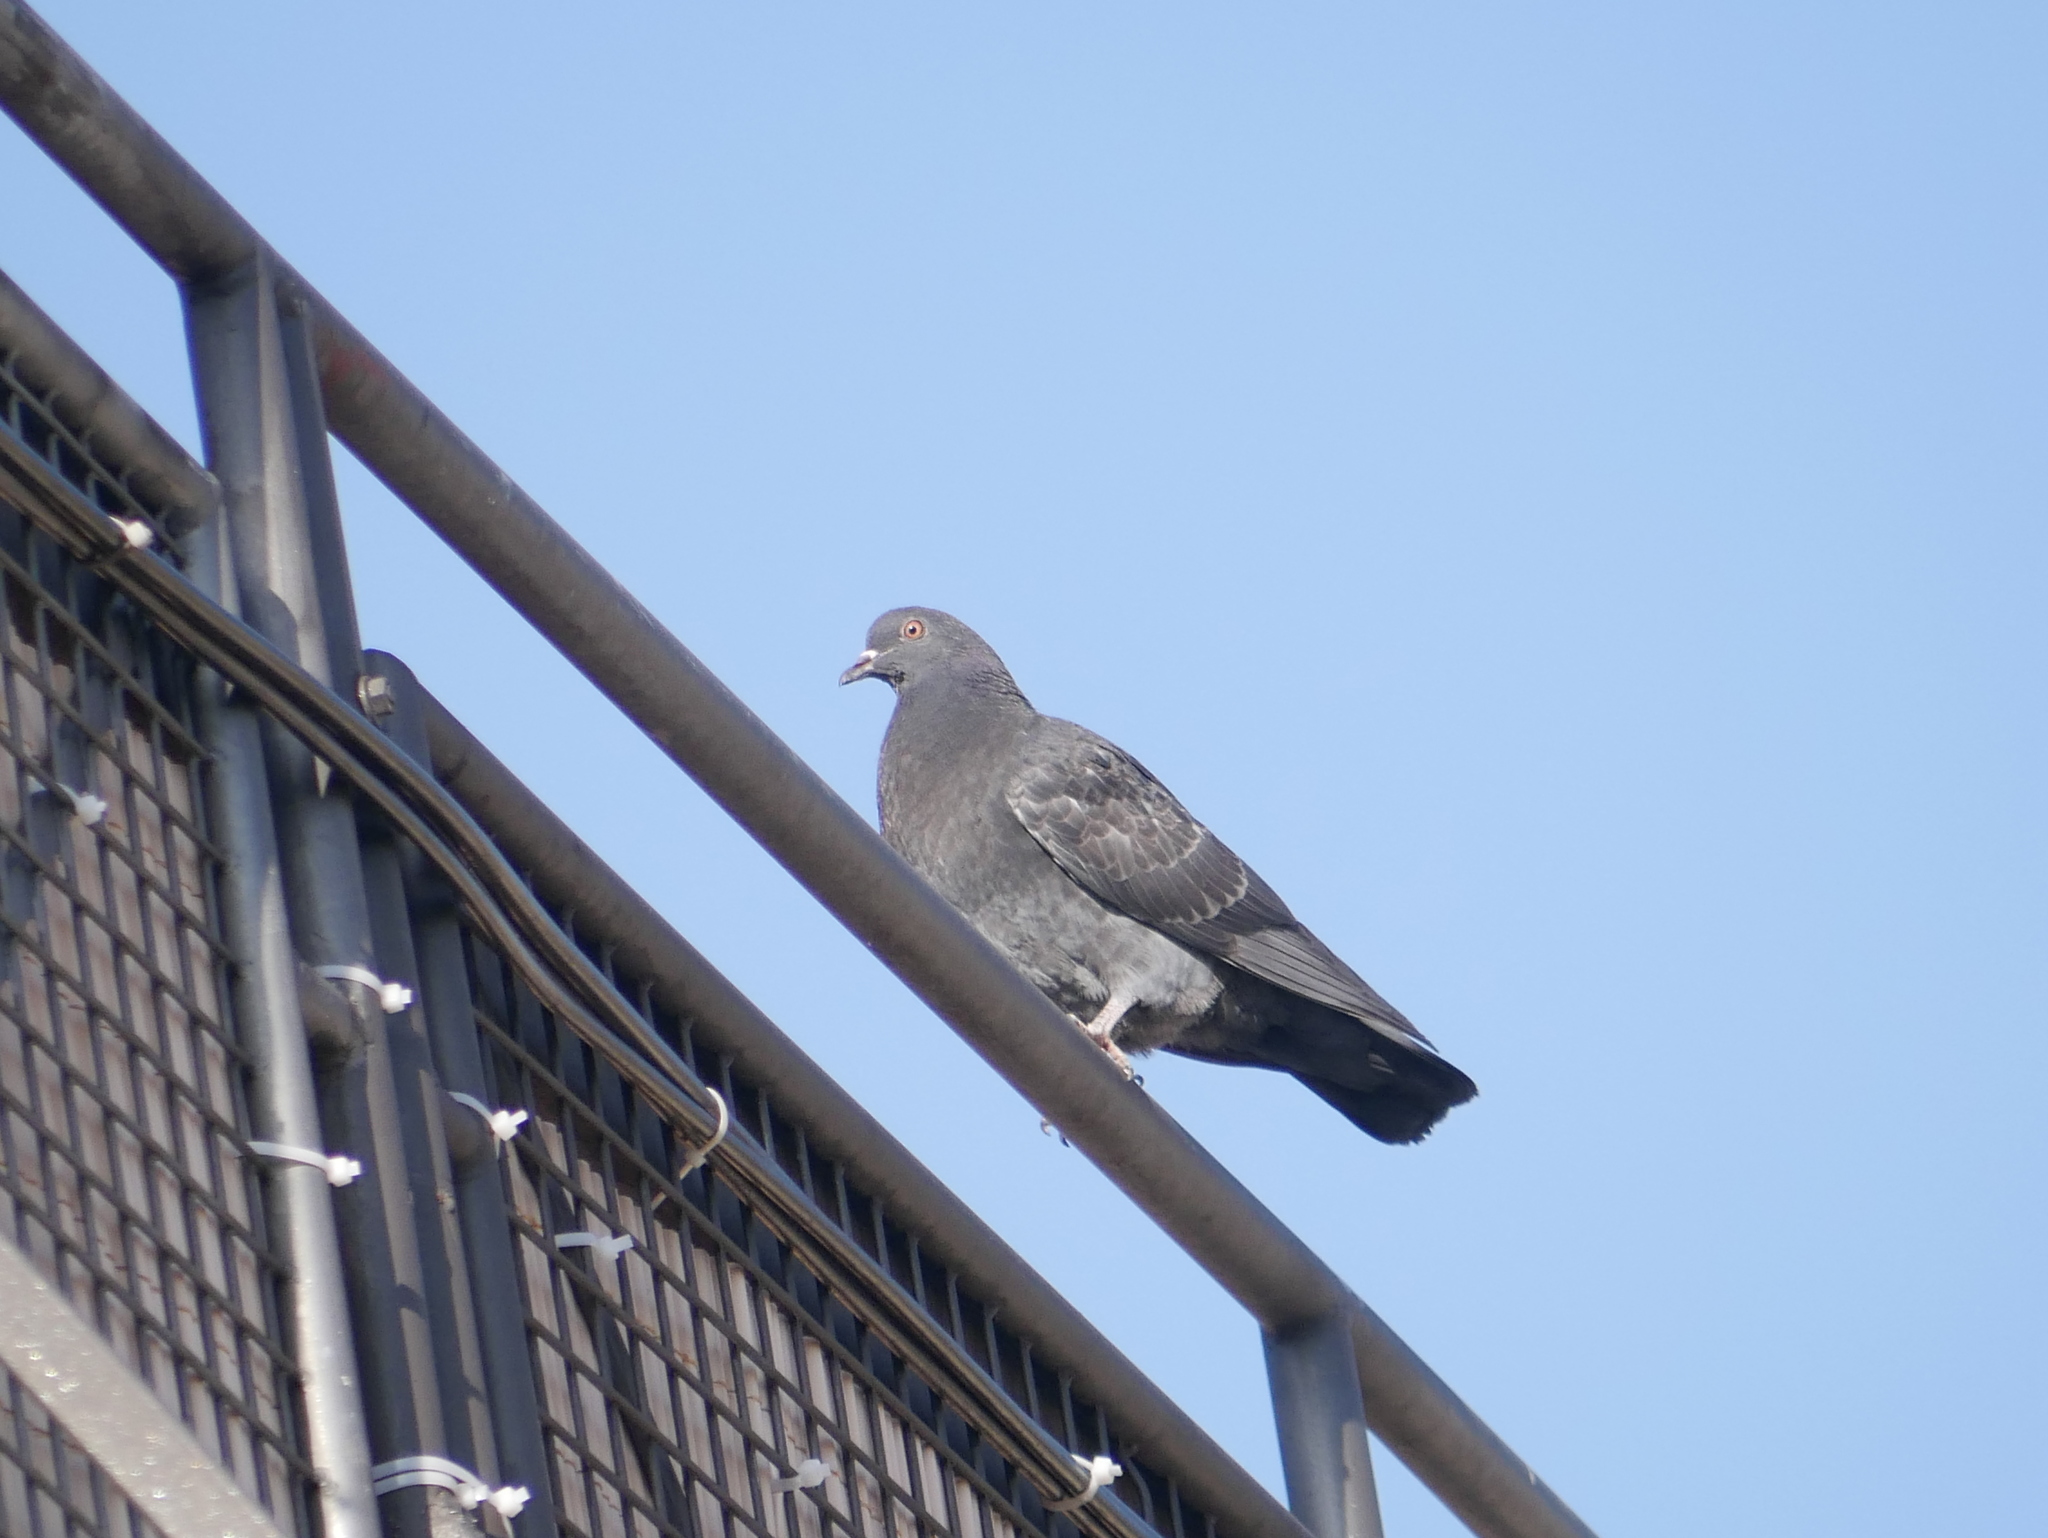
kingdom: Animalia
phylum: Chordata
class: Aves
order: Columbiformes
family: Columbidae
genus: Columba
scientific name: Columba livia
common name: Rock pigeon
